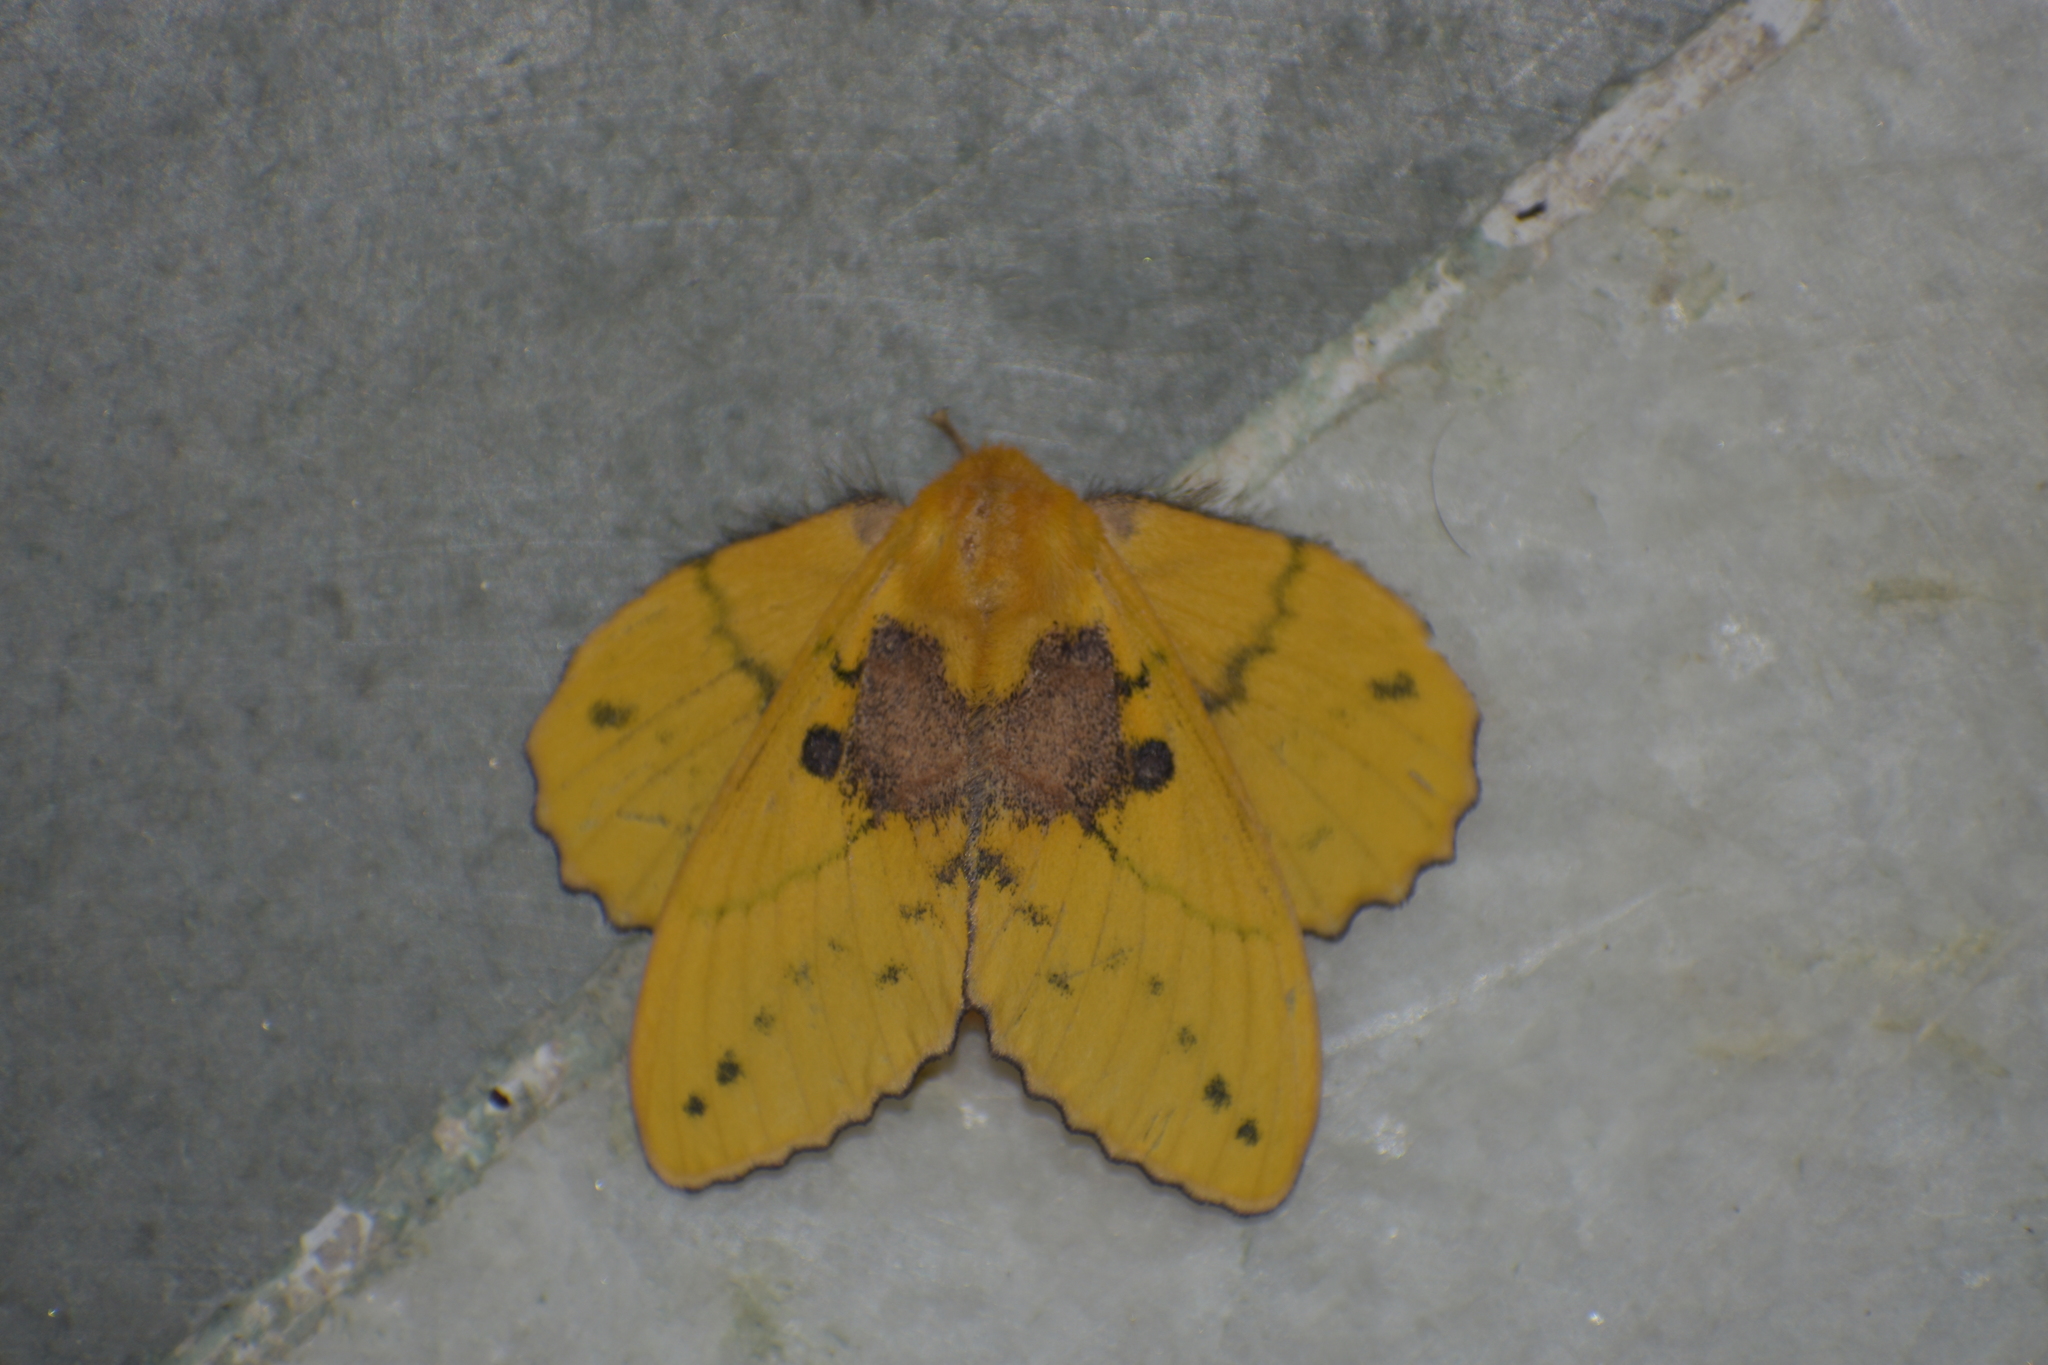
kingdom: Animalia
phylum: Arthropoda
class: Insecta
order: Lepidoptera
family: Lasiocampidae
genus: Trabala
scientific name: Trabala vishnou
